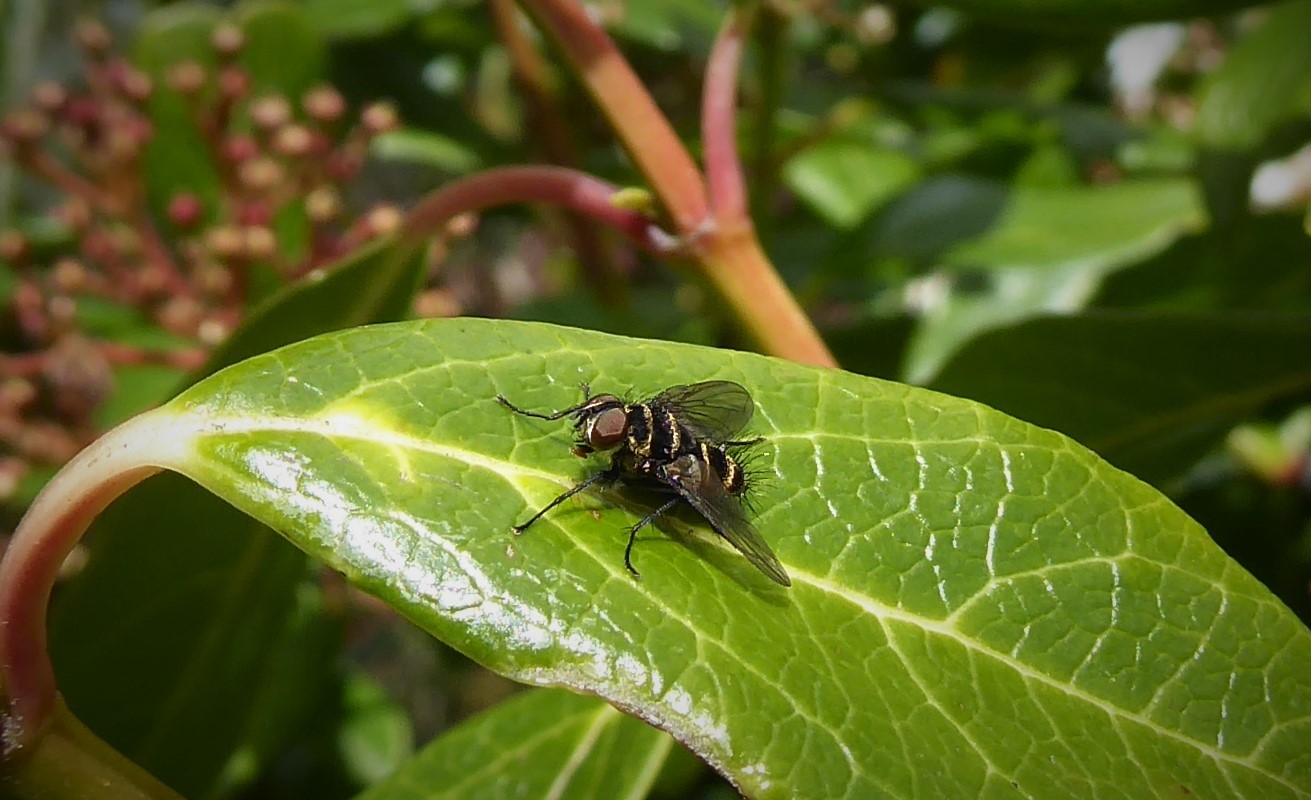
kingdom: Animalia
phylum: Arthropoda
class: Insecta
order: Diptera
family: Tachinidae
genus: Trigonospila
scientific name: Trigonospila brevifacies
